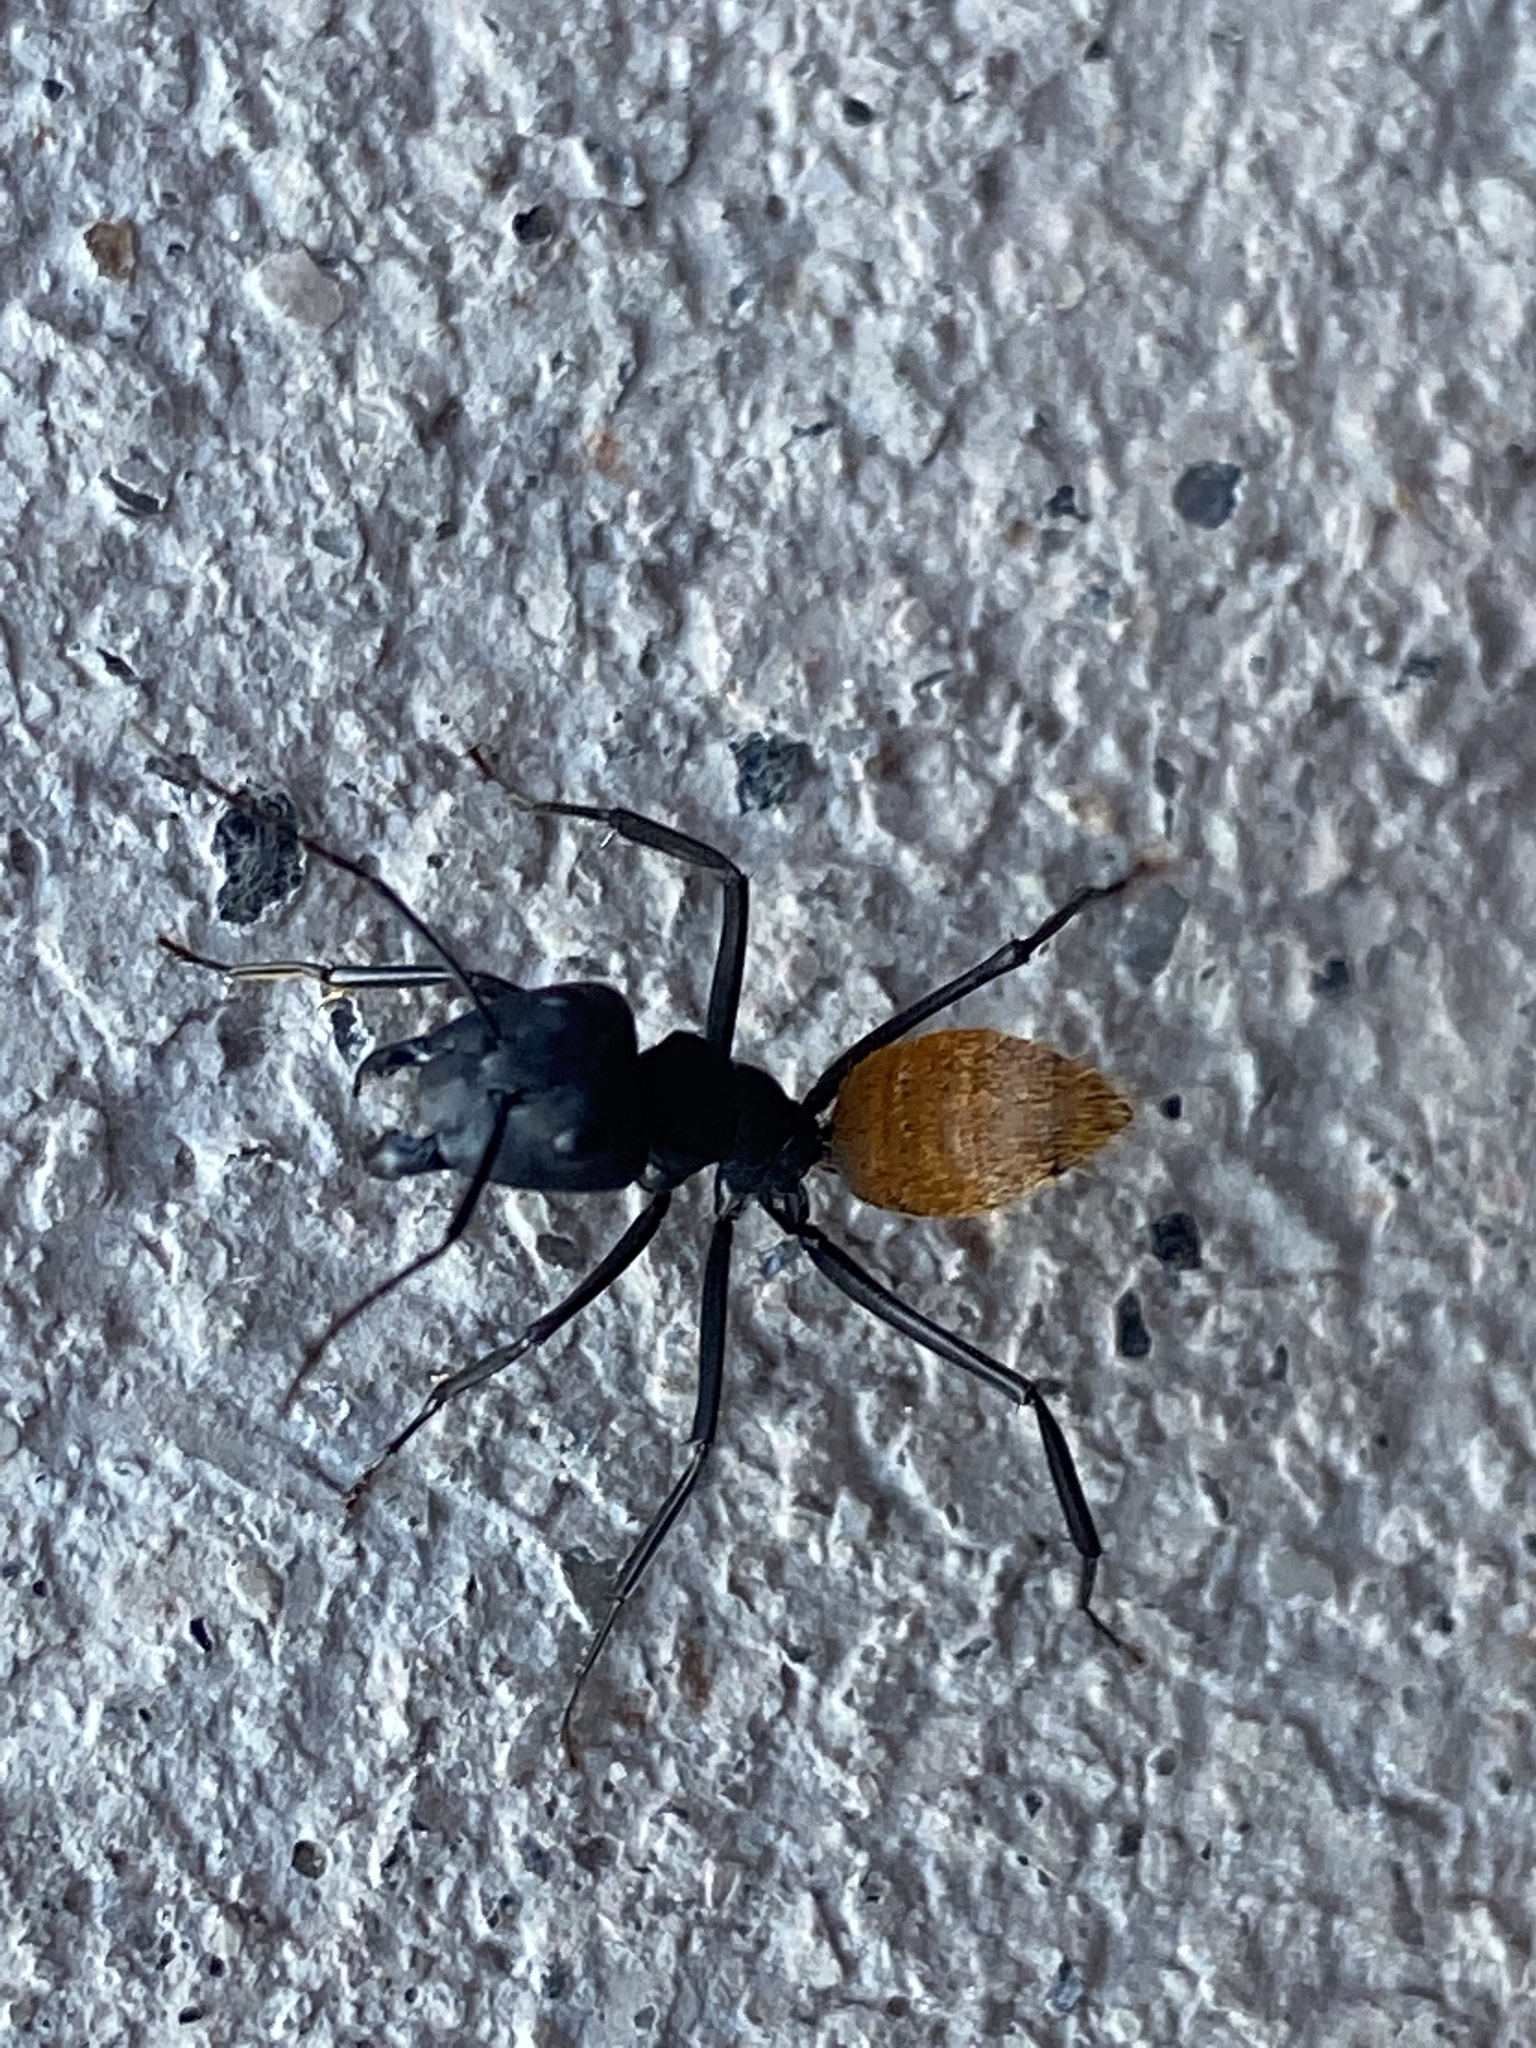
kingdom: Animalia
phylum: Arthropoda
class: Insecta
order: Hymenoptera
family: Formicidae
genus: Camponotus
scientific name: Camponotus fulvopilosus
